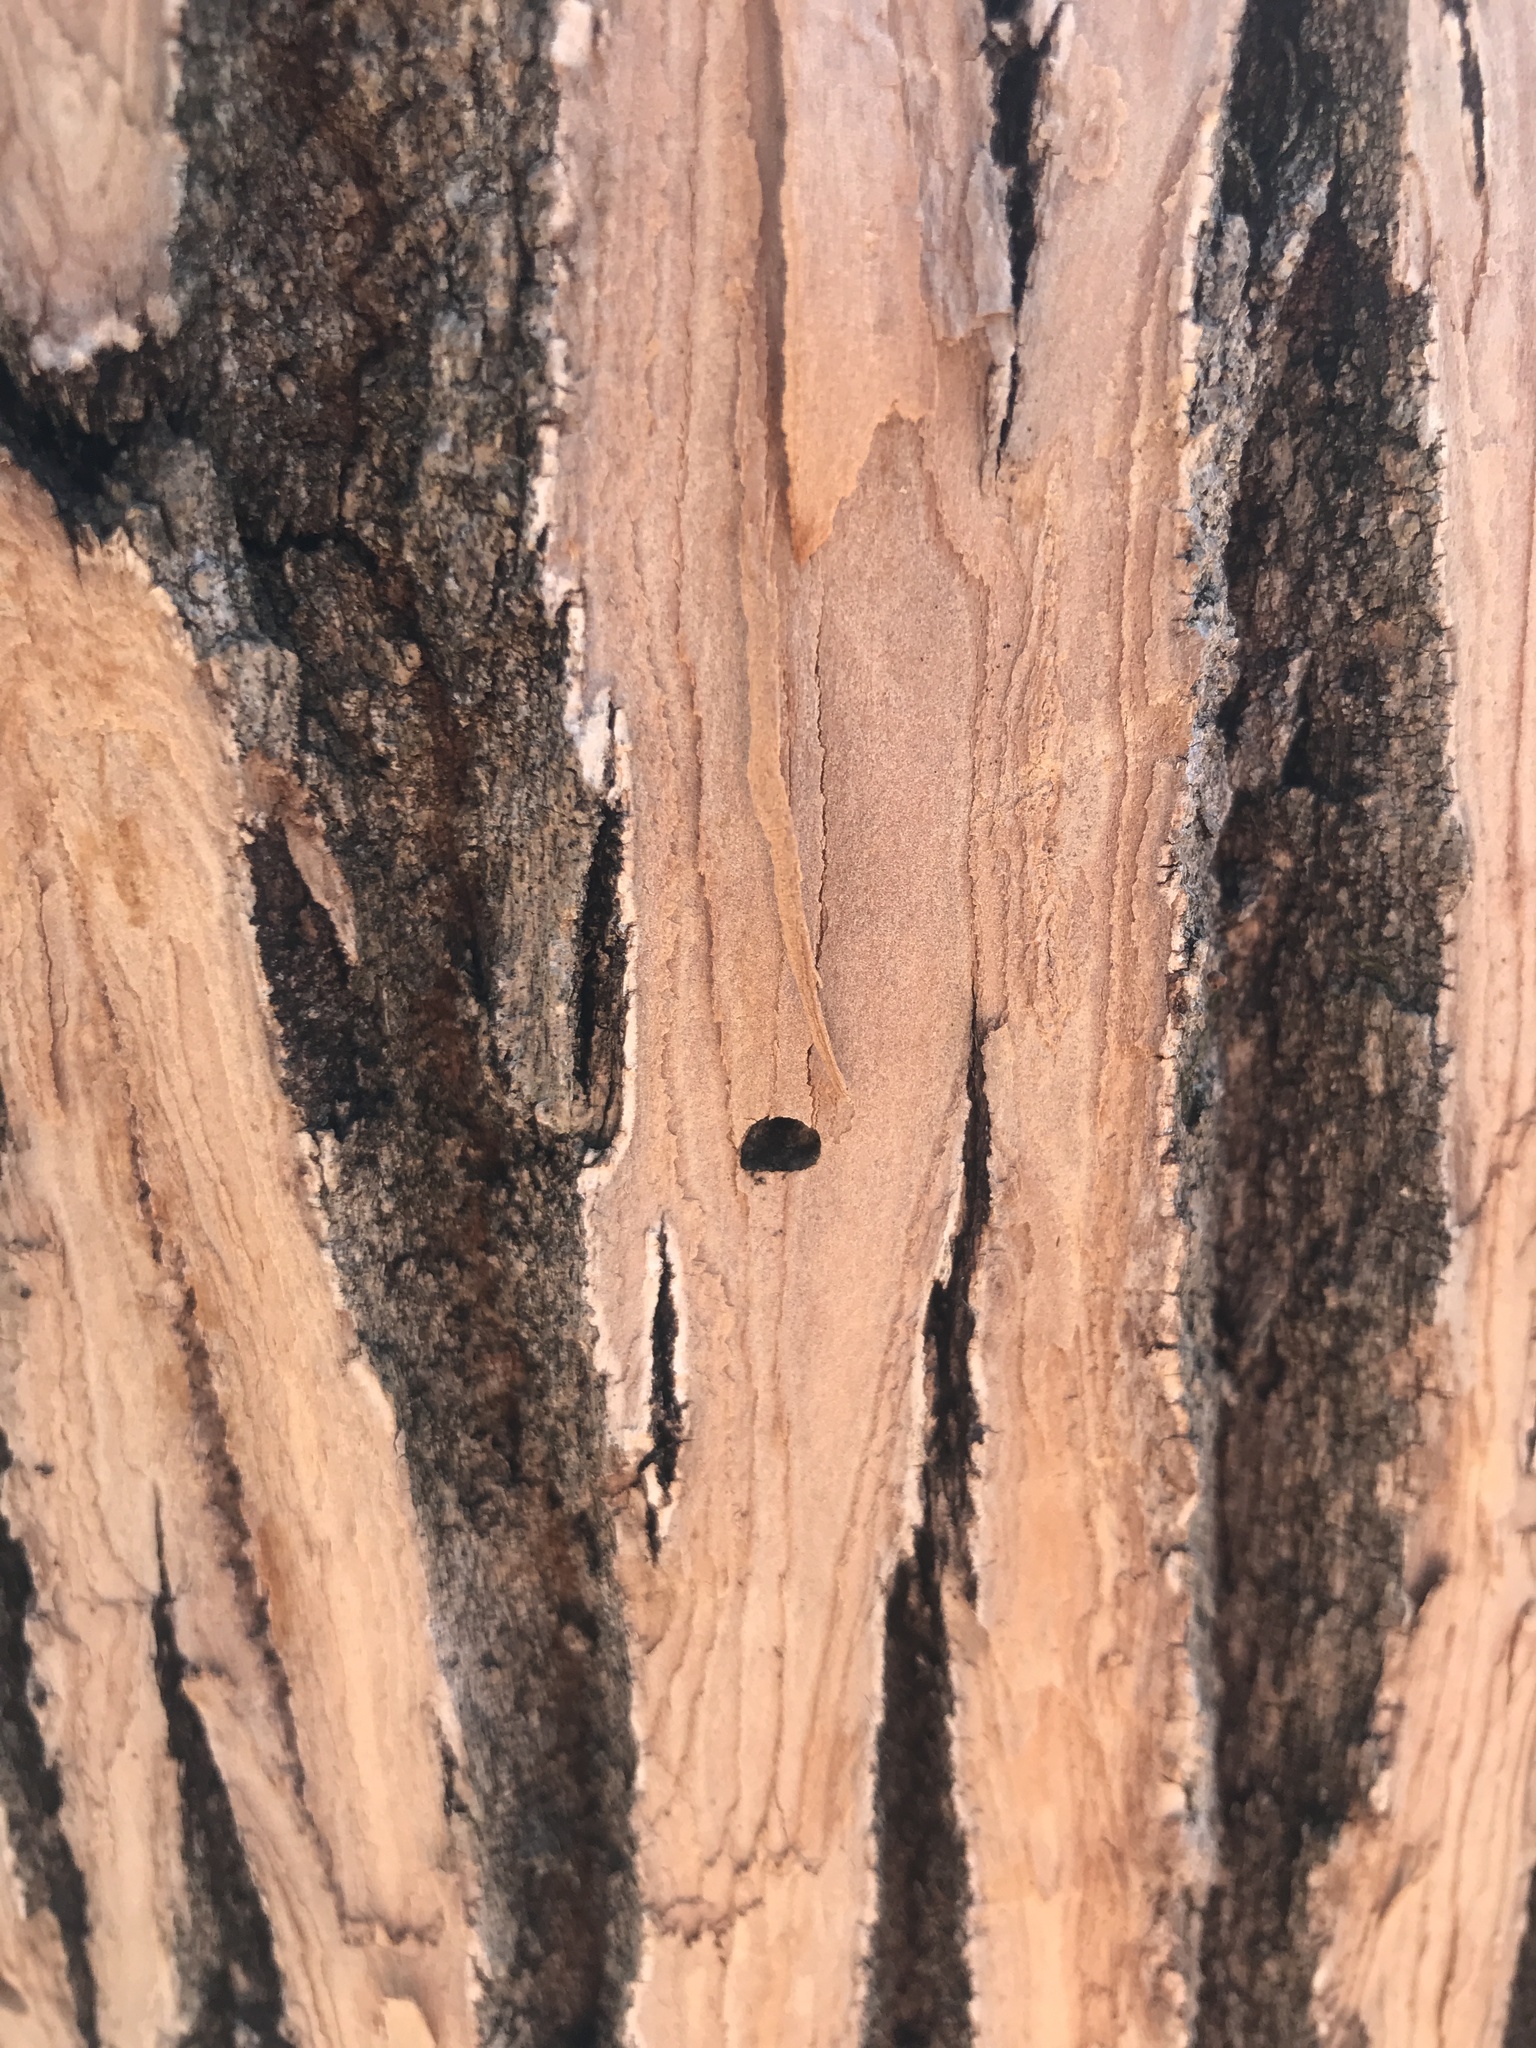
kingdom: Animalia
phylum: Arthropoda
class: Insecta
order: Coleoptera
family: Buprestidae
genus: Agrilus
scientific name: Agrilus planipennis
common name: Emerald ash borer
